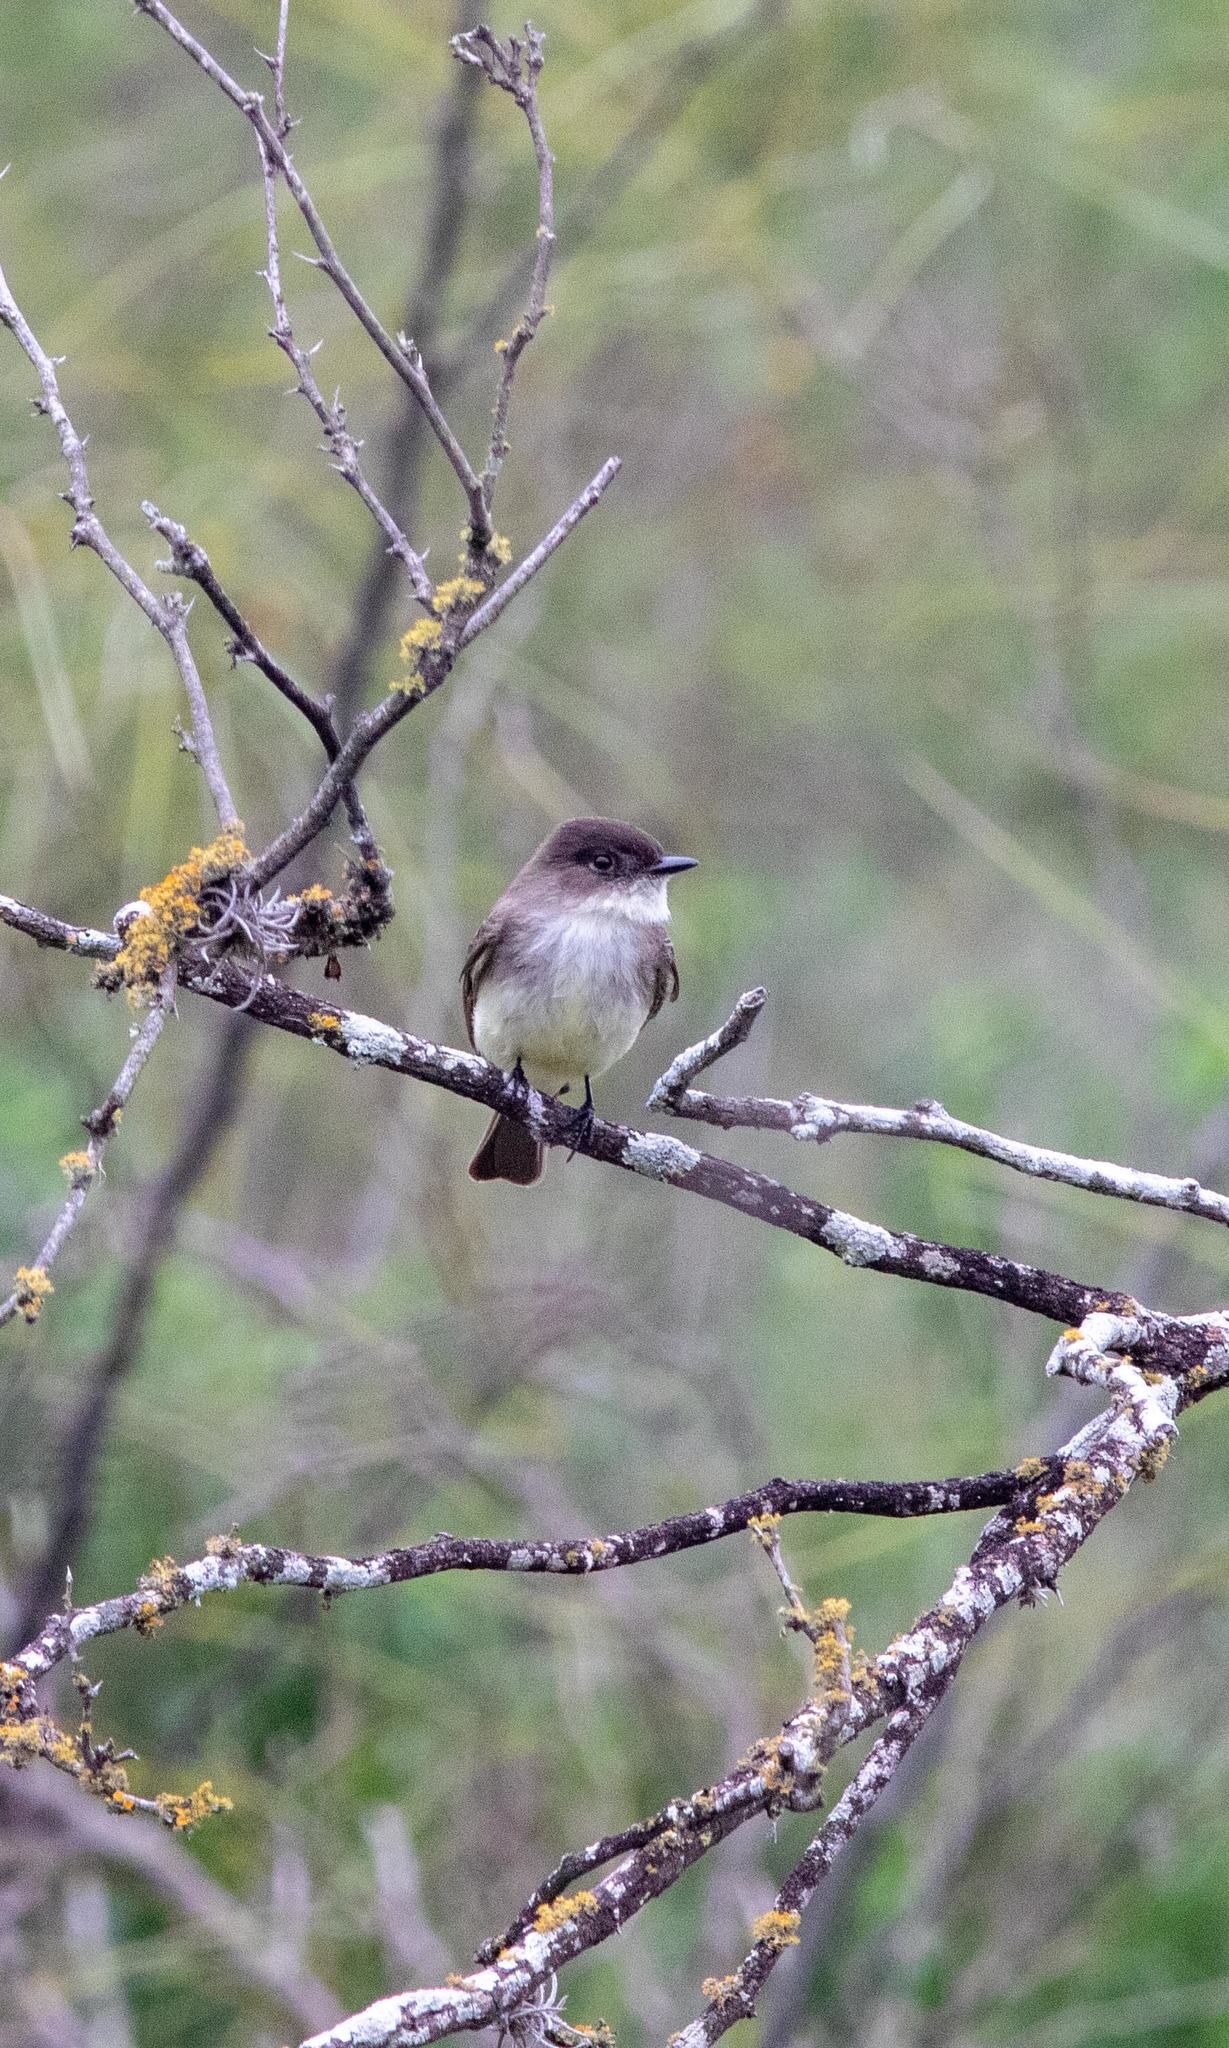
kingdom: Animalia
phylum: Chordata
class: Aves
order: Passeriformes
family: Tyrannidae
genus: Sayornis
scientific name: Sayornis phoebe
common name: Eastern phoebe
